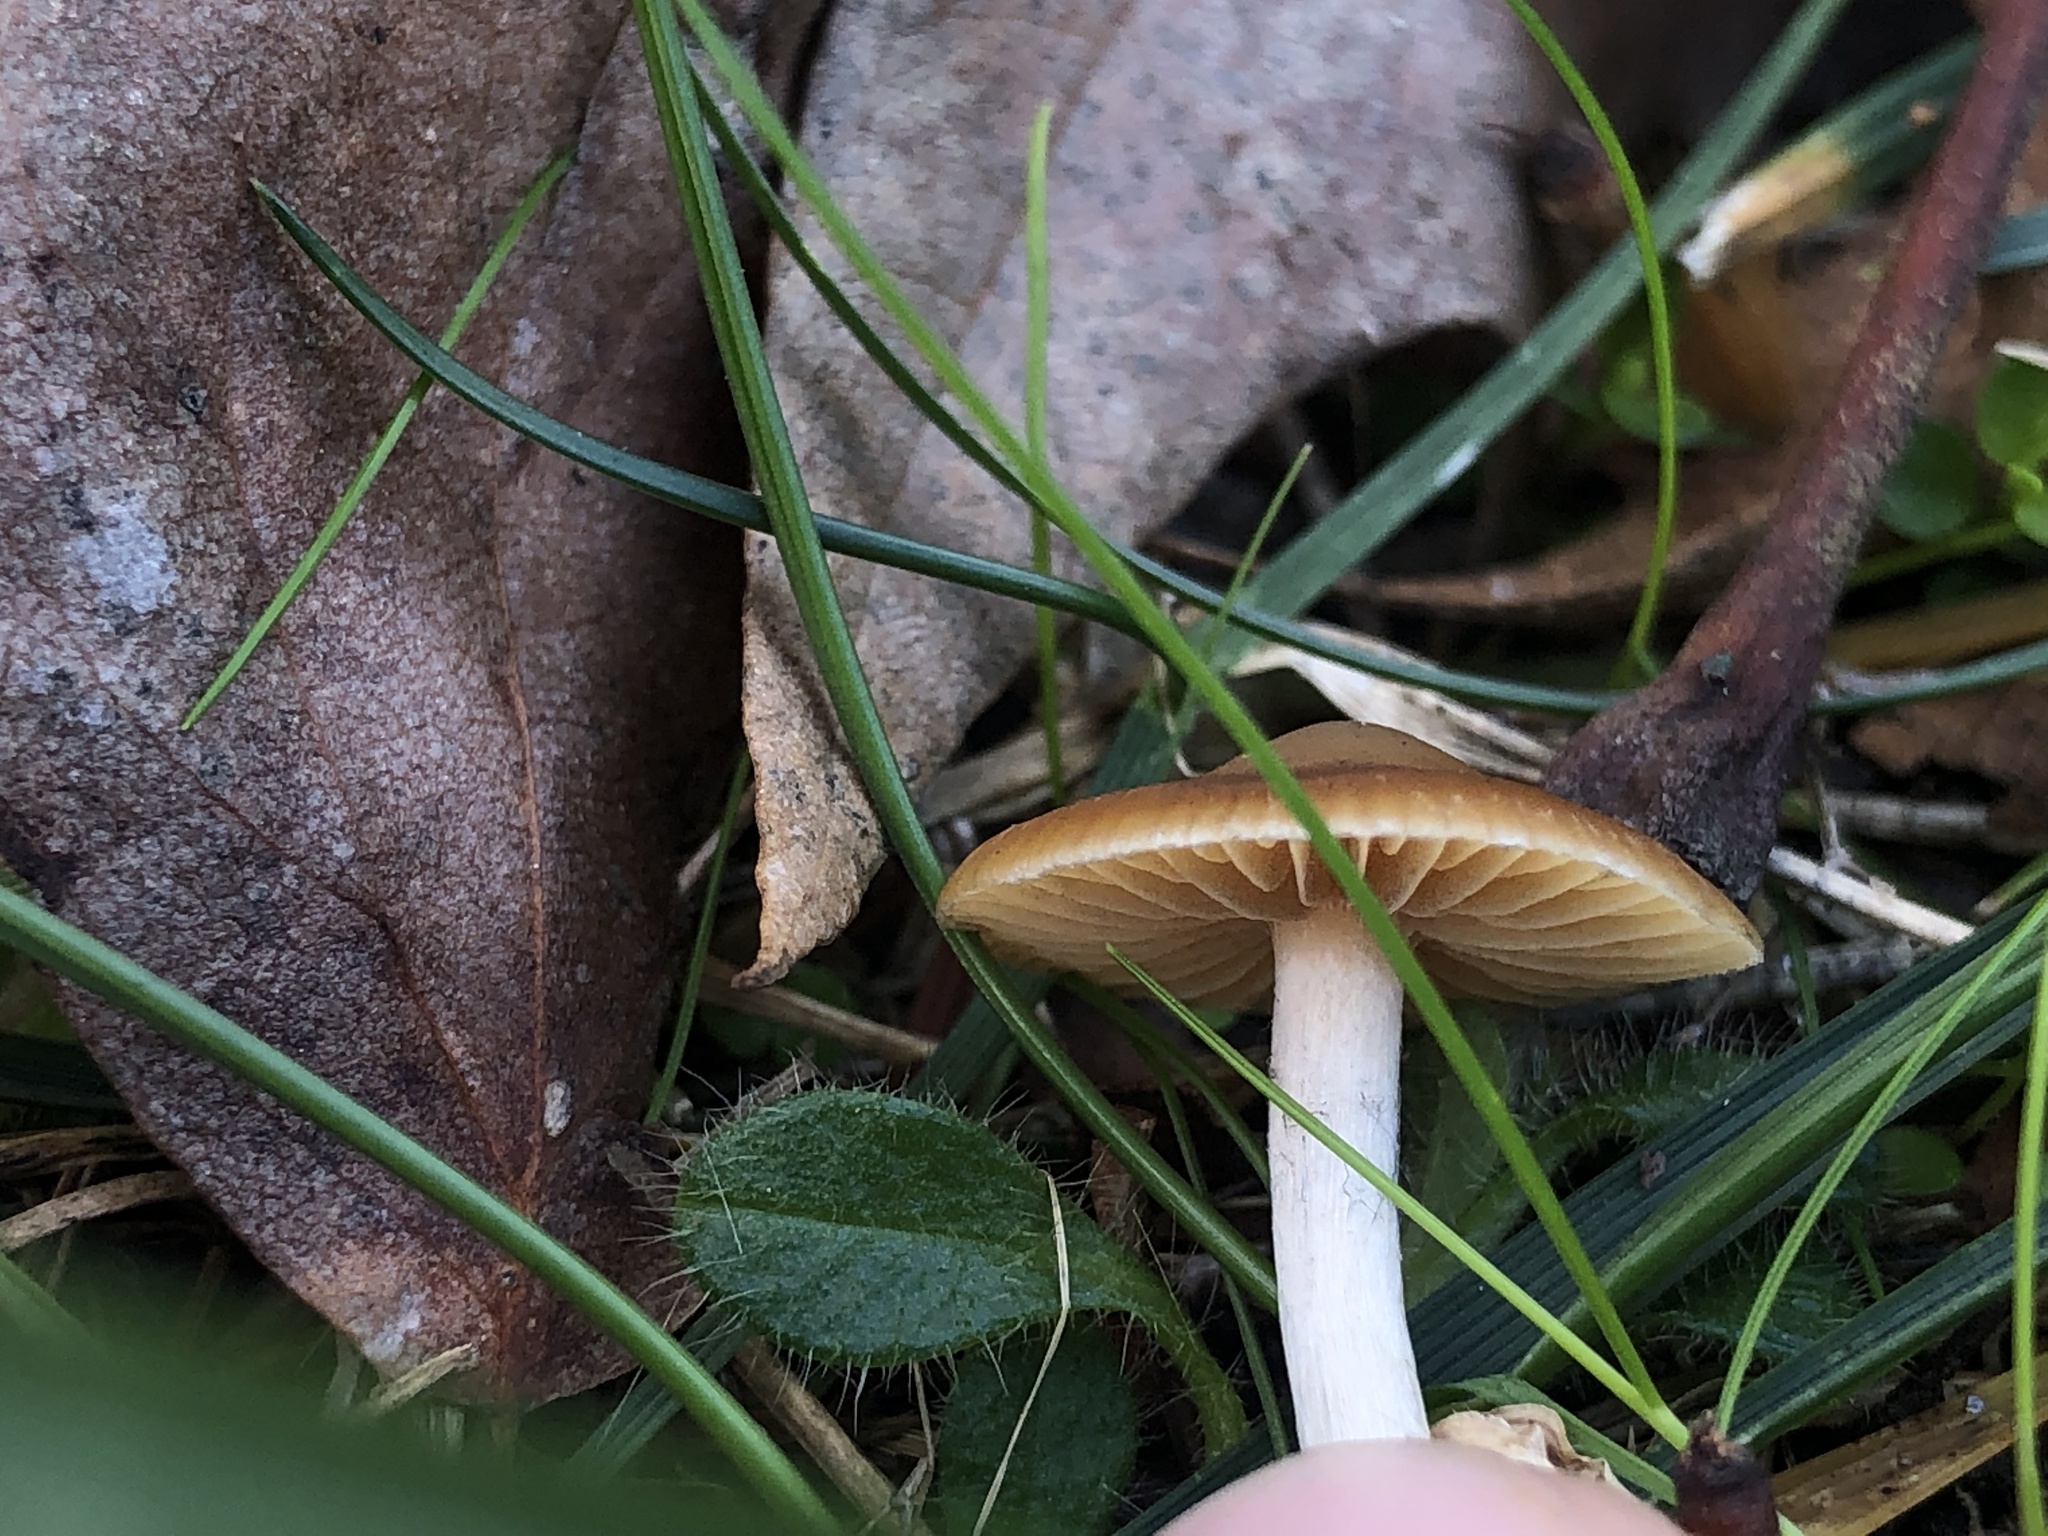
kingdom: Fungi
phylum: Basidiomycota
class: Agaricomycetes
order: Agaricales
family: Hymenogastraceae
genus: Psilocybe
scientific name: Psilocybe cyanescens
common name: Blueleg brownie
